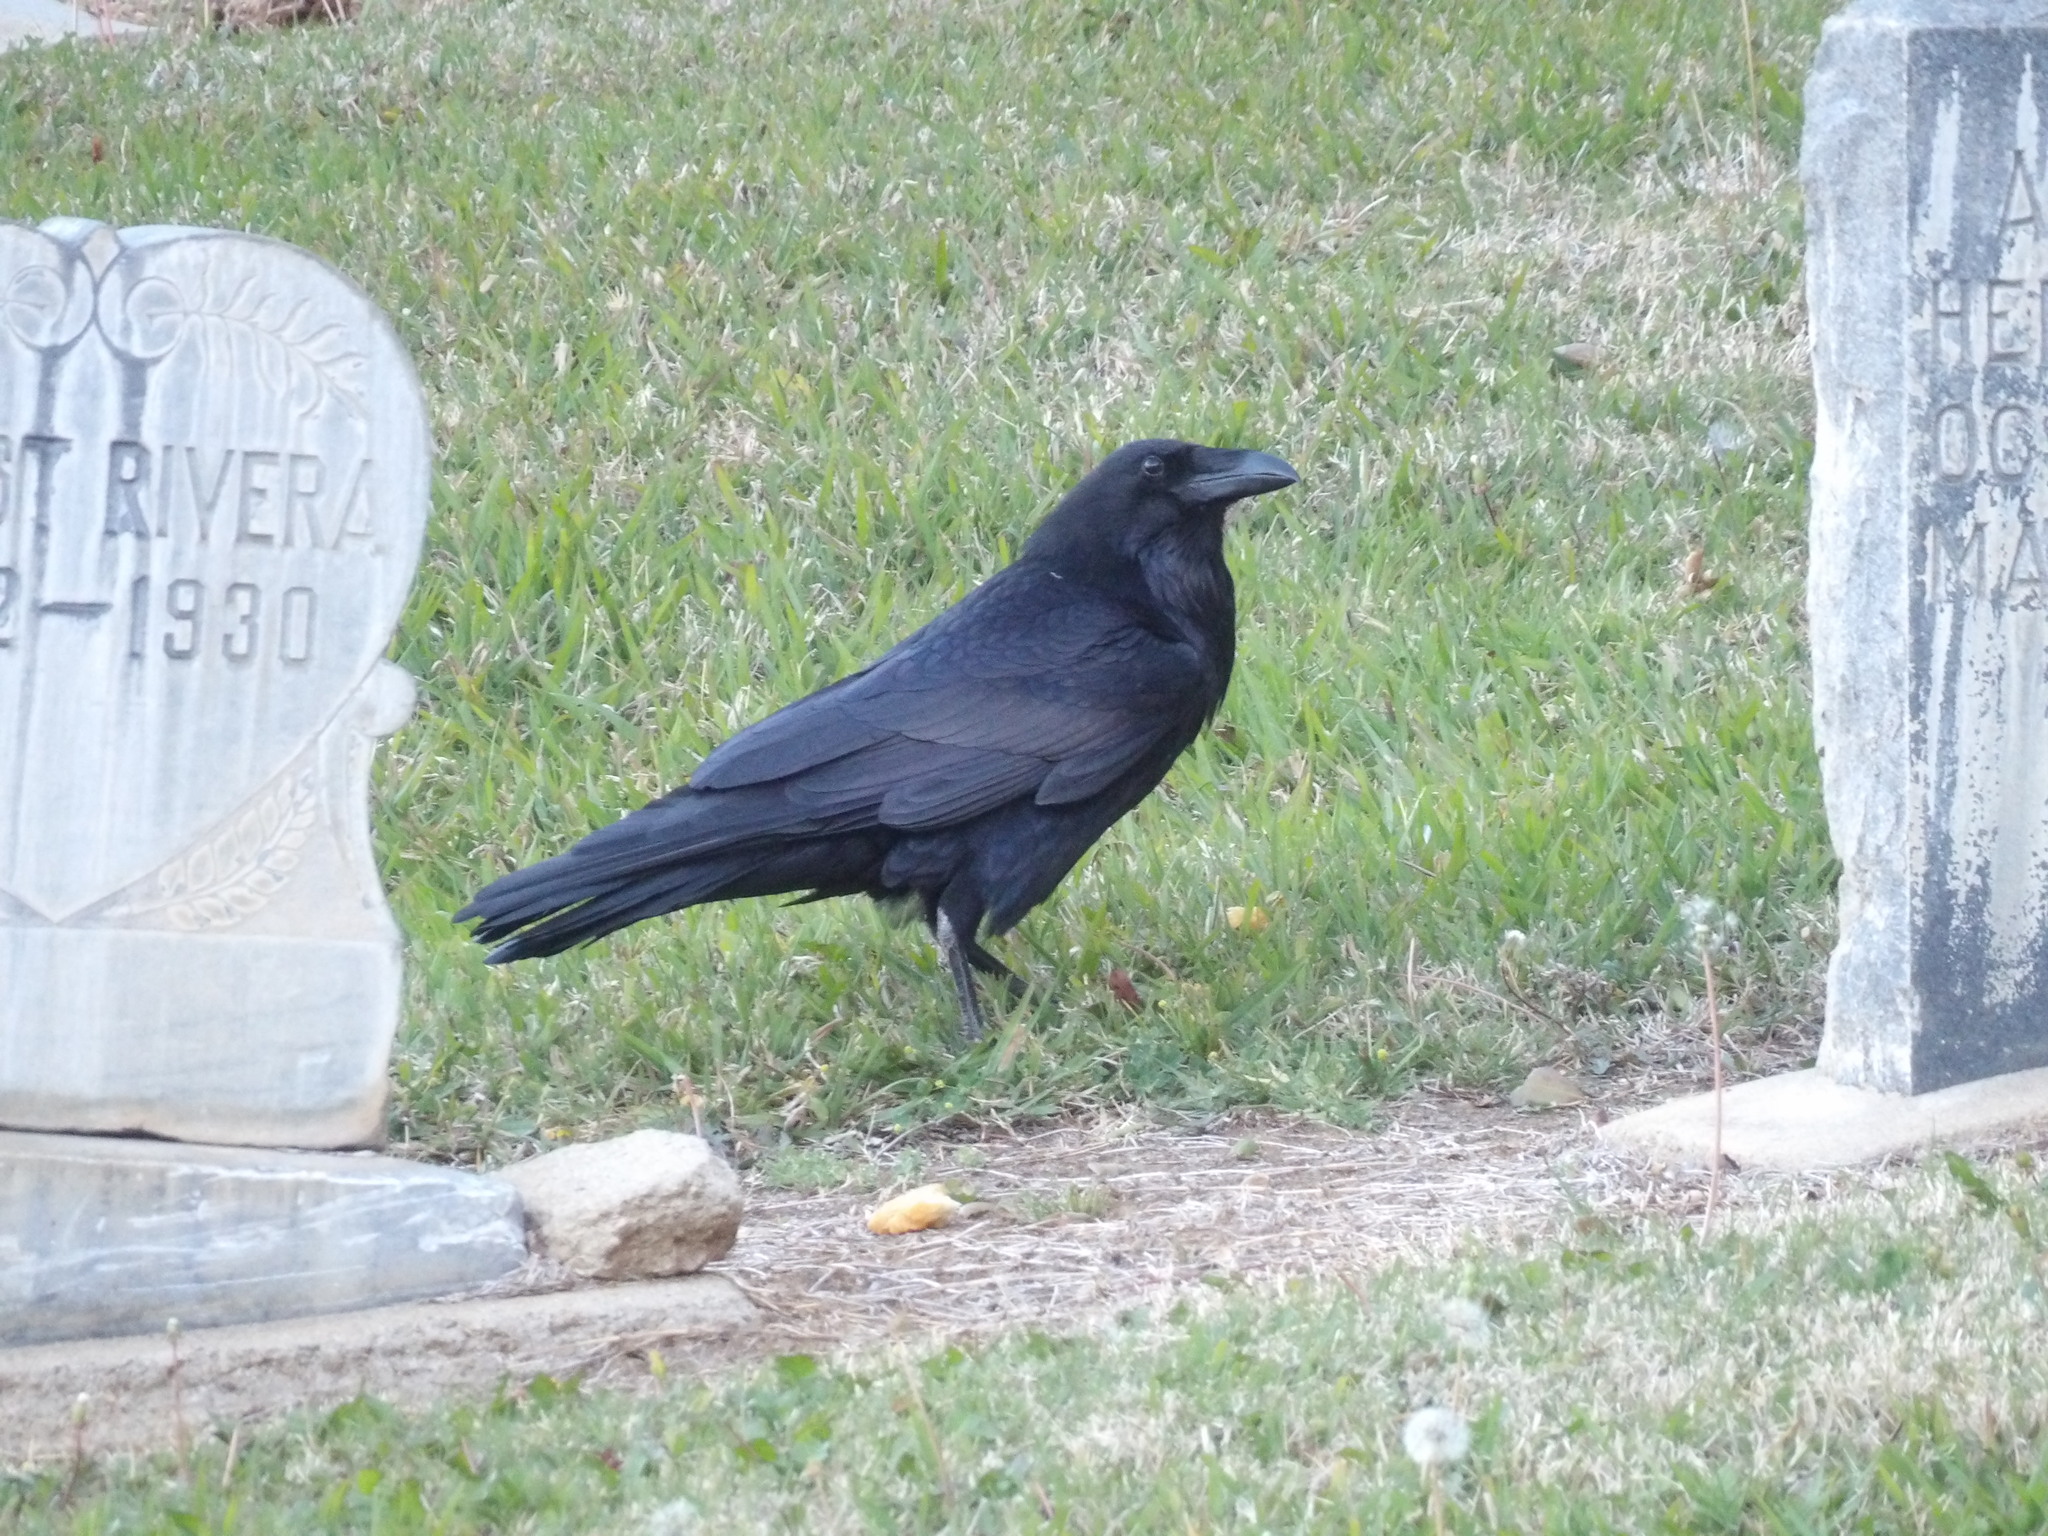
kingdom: Animalia
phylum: Chordata
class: Aves
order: Passeriformes
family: Corvidae
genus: Corvus
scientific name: Corvus corax
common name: Common raven
